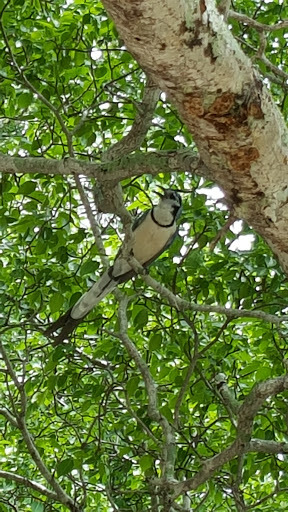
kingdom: Animalia
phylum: Chordata
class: Aves
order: Passeriformes
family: Corvidae
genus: Calocitta
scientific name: Calocitta formosa
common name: White-throated magpie-jay
